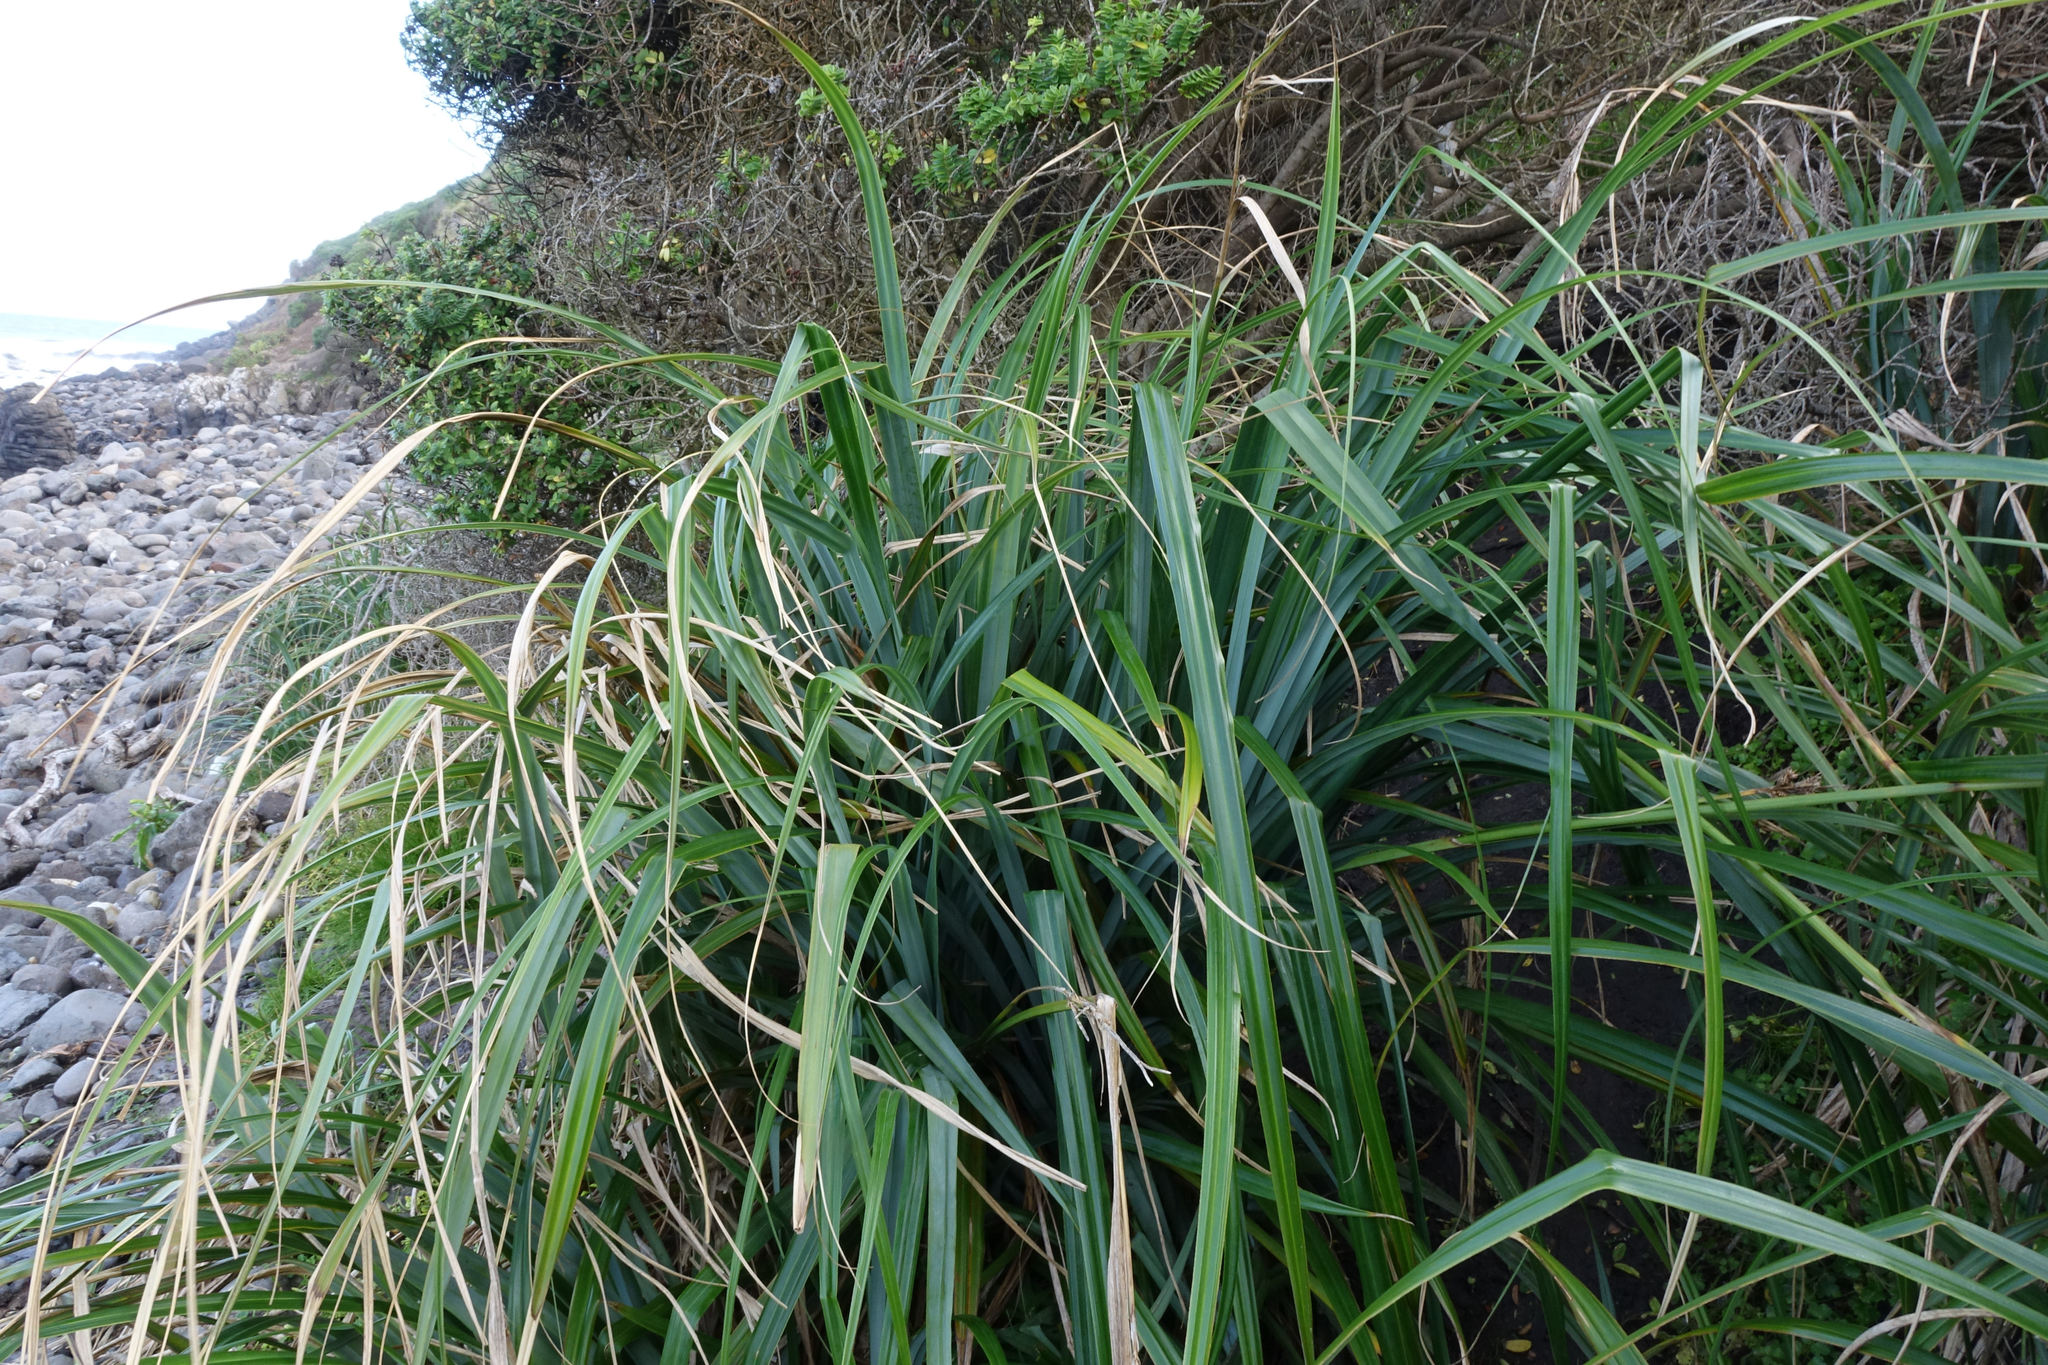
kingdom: Plantae
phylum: Tracheophyta
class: Liliopsida
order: Poales
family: Cyperaceae
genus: Carex
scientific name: Carex trifida
